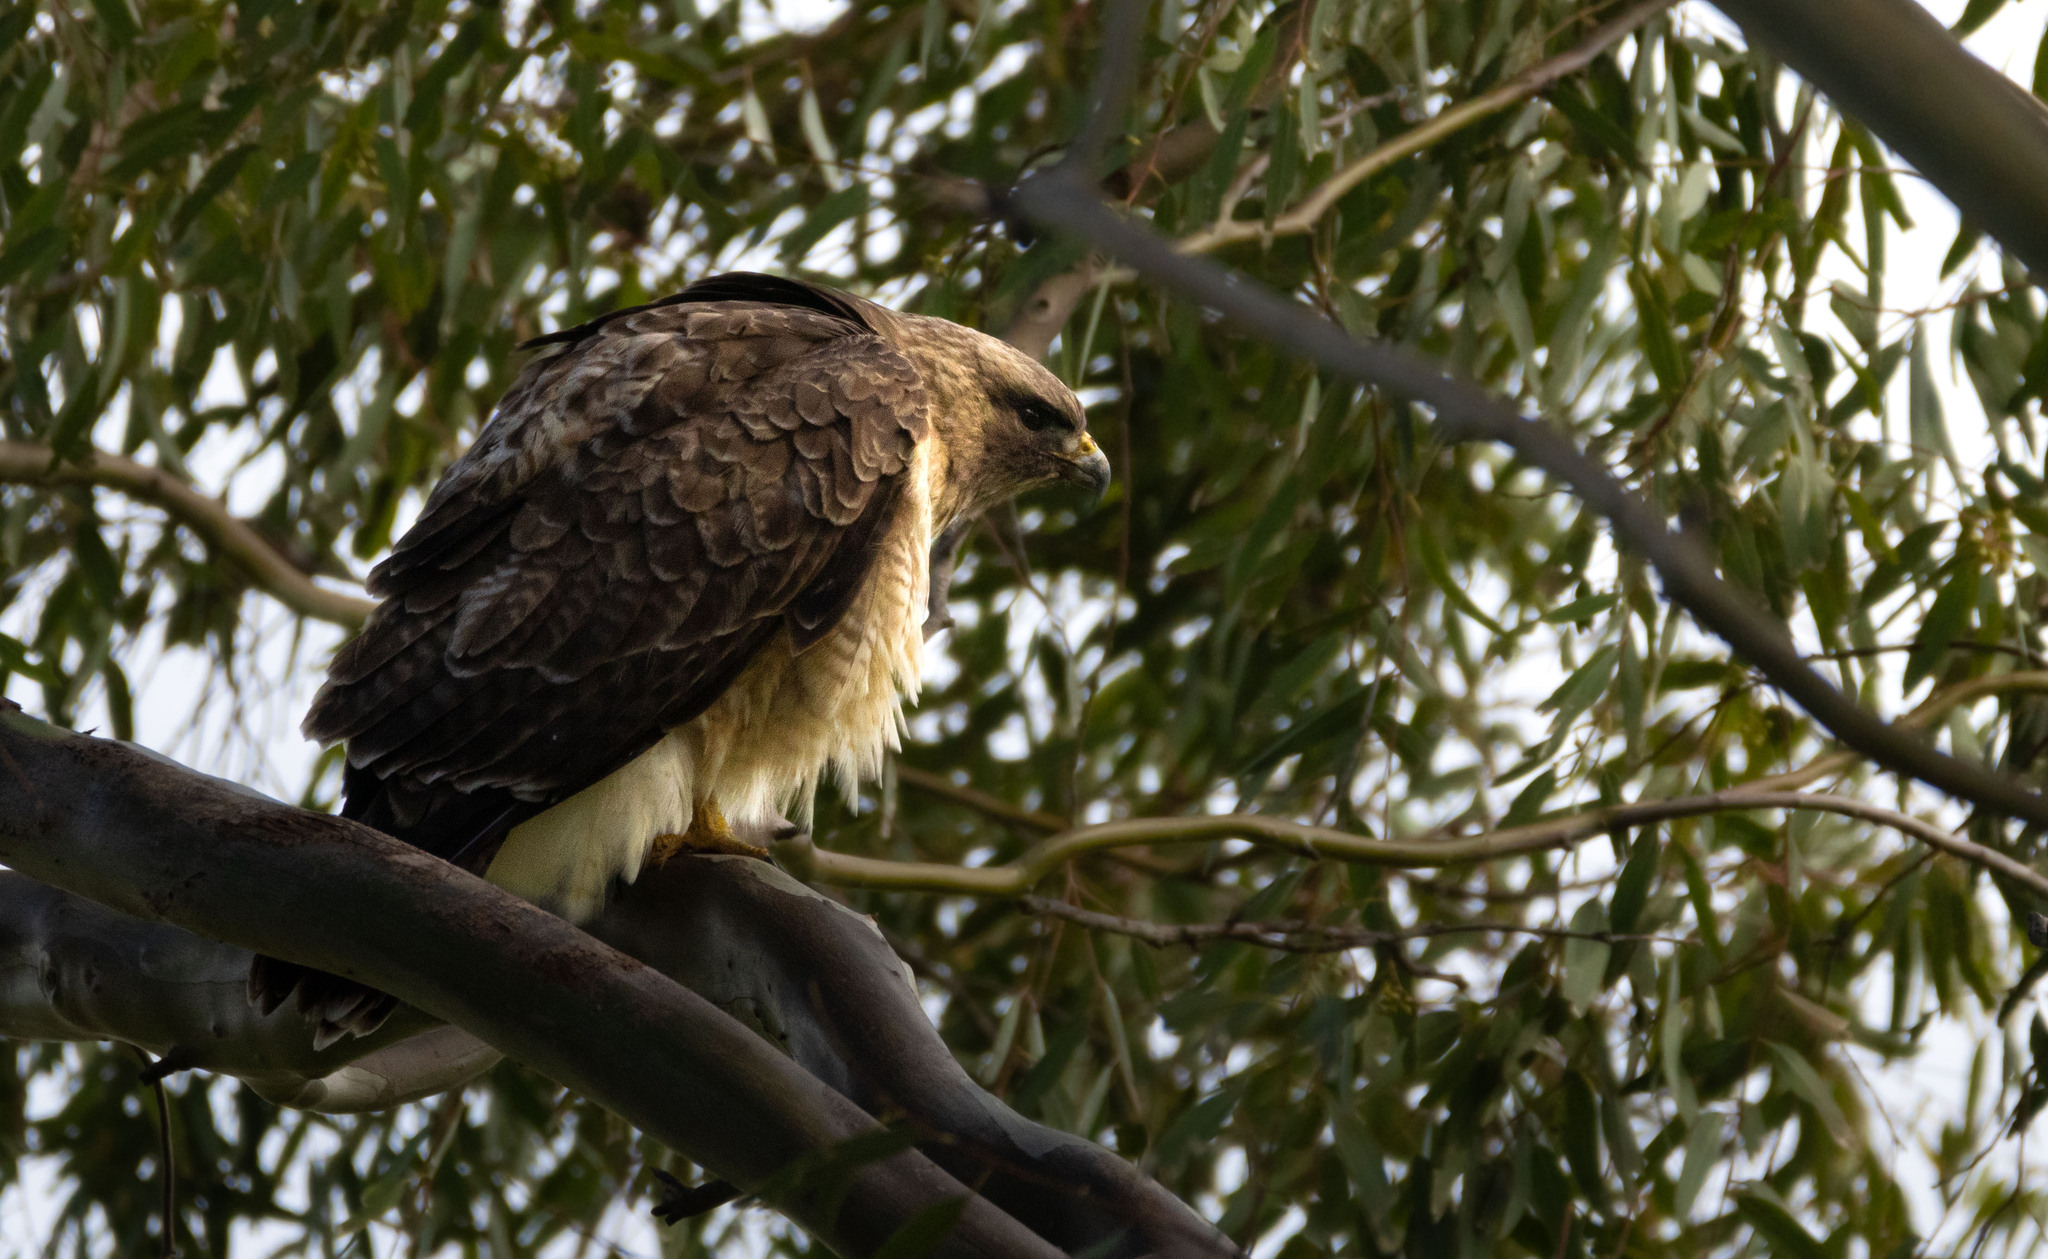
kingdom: Animalia
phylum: Chordata
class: Aves
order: Accipitriformes
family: Accipitridae
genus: Buteo
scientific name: Buteo jamaicensis
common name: Red-tailed hawk
